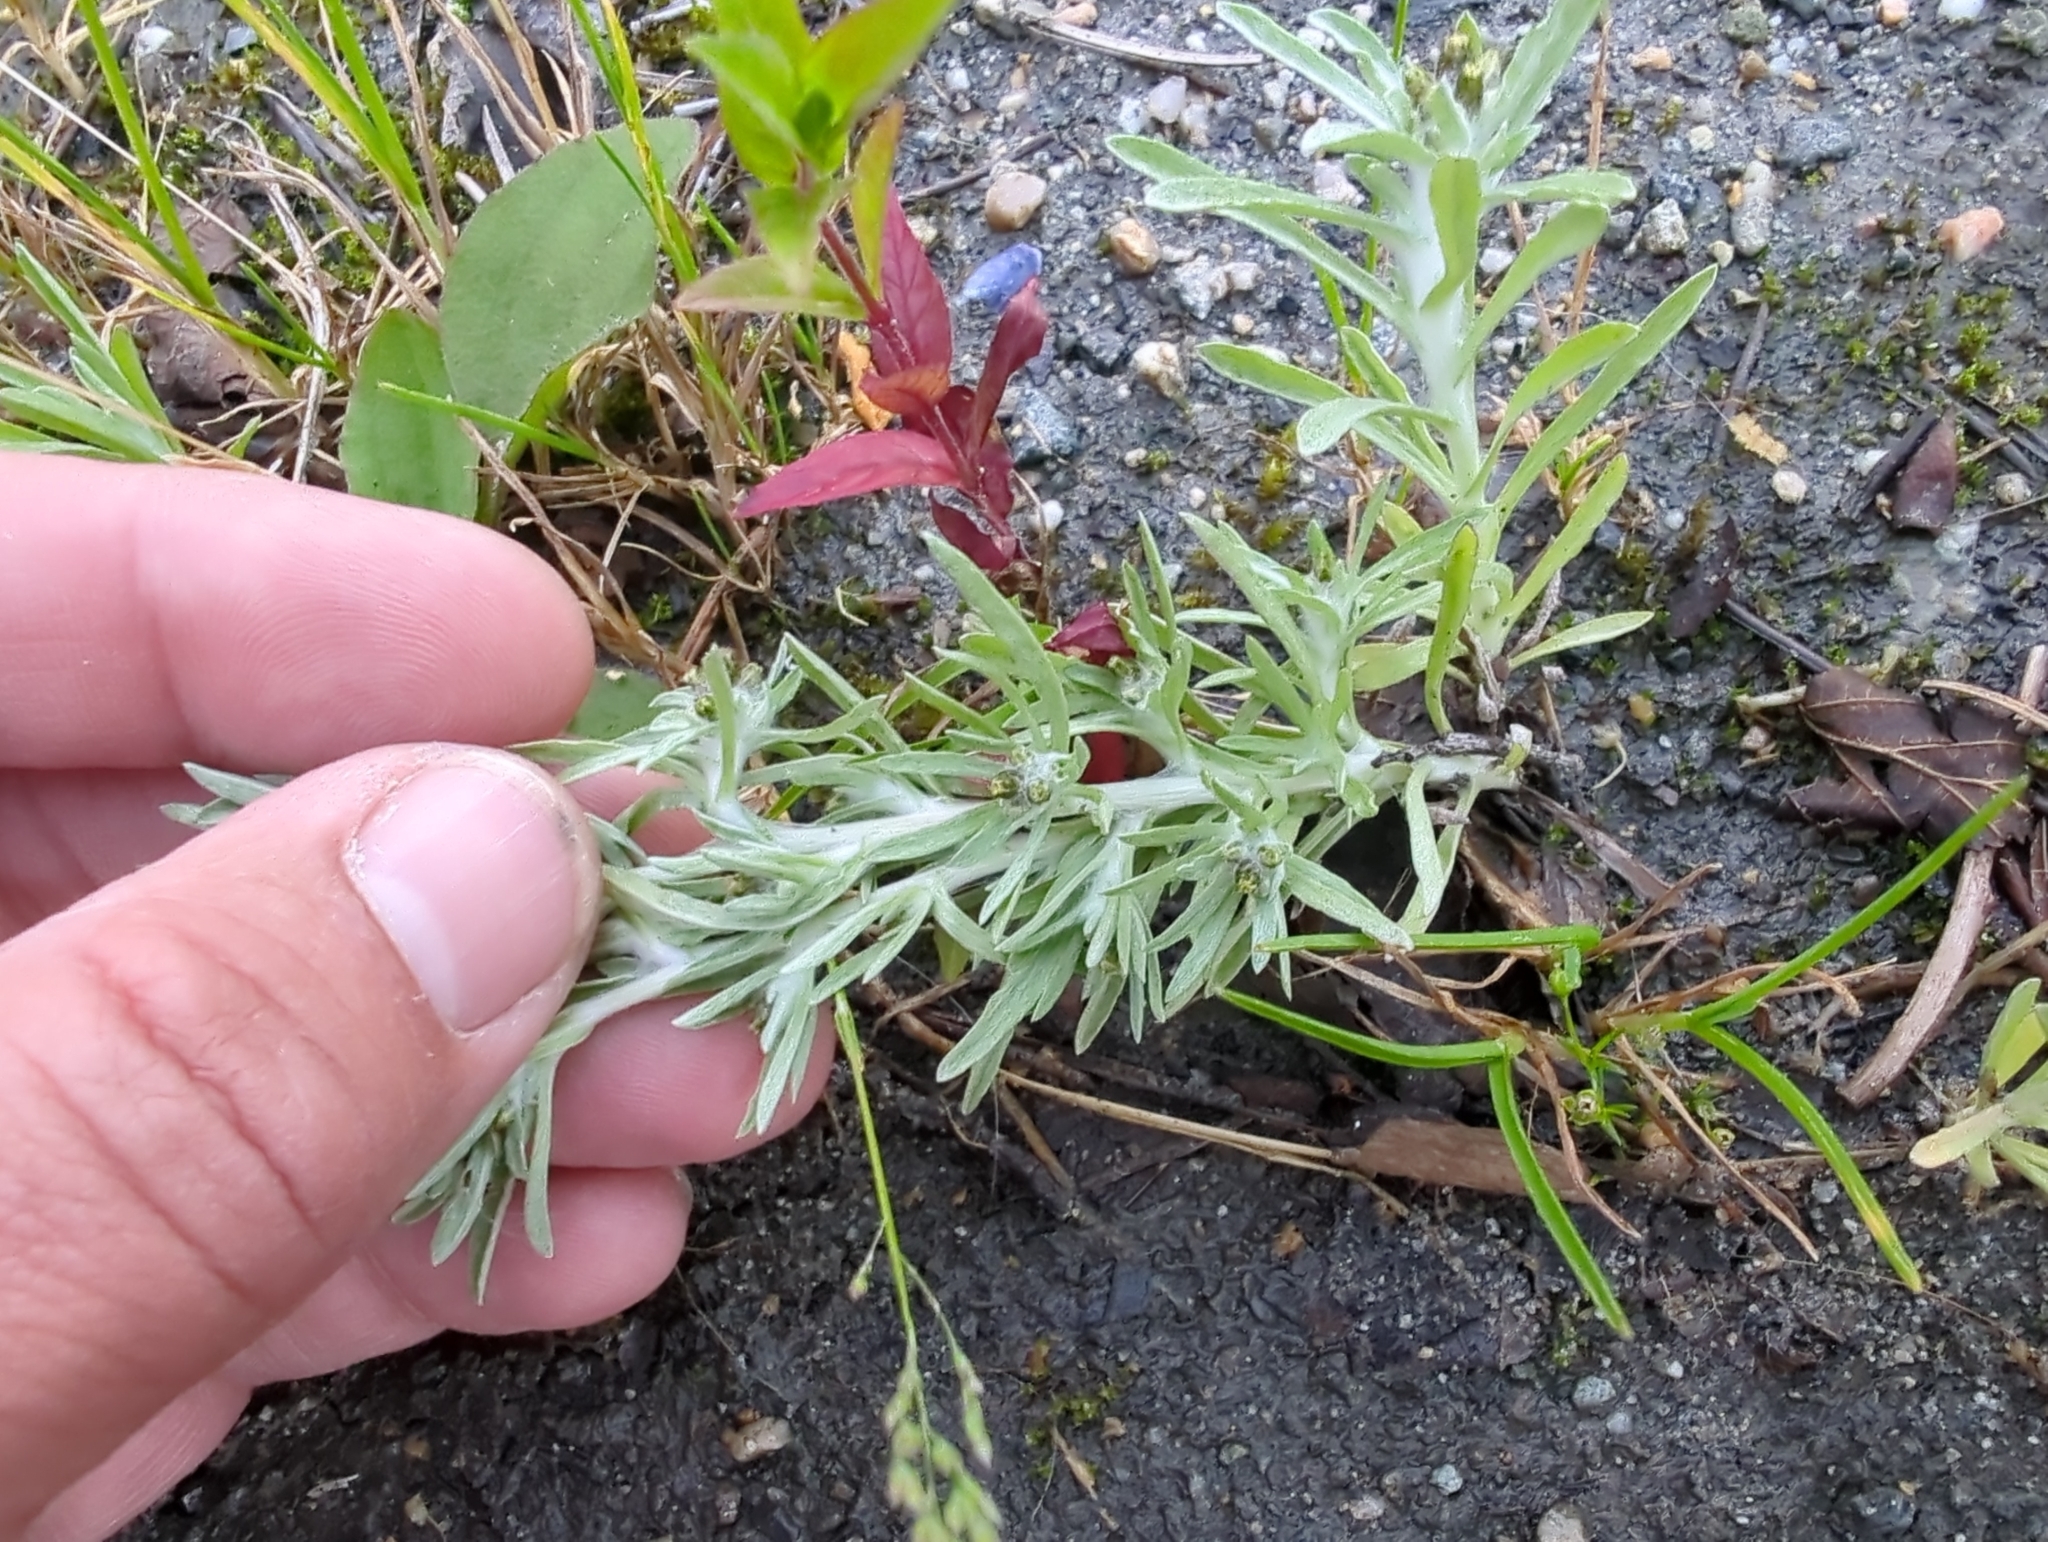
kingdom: Plantae
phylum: Tracheophyta
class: Magnoliopsida
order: Asterales
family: Asteraceae
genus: Gnaphalium
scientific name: Gnaphalium uliginosum
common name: Marsh cudweed
